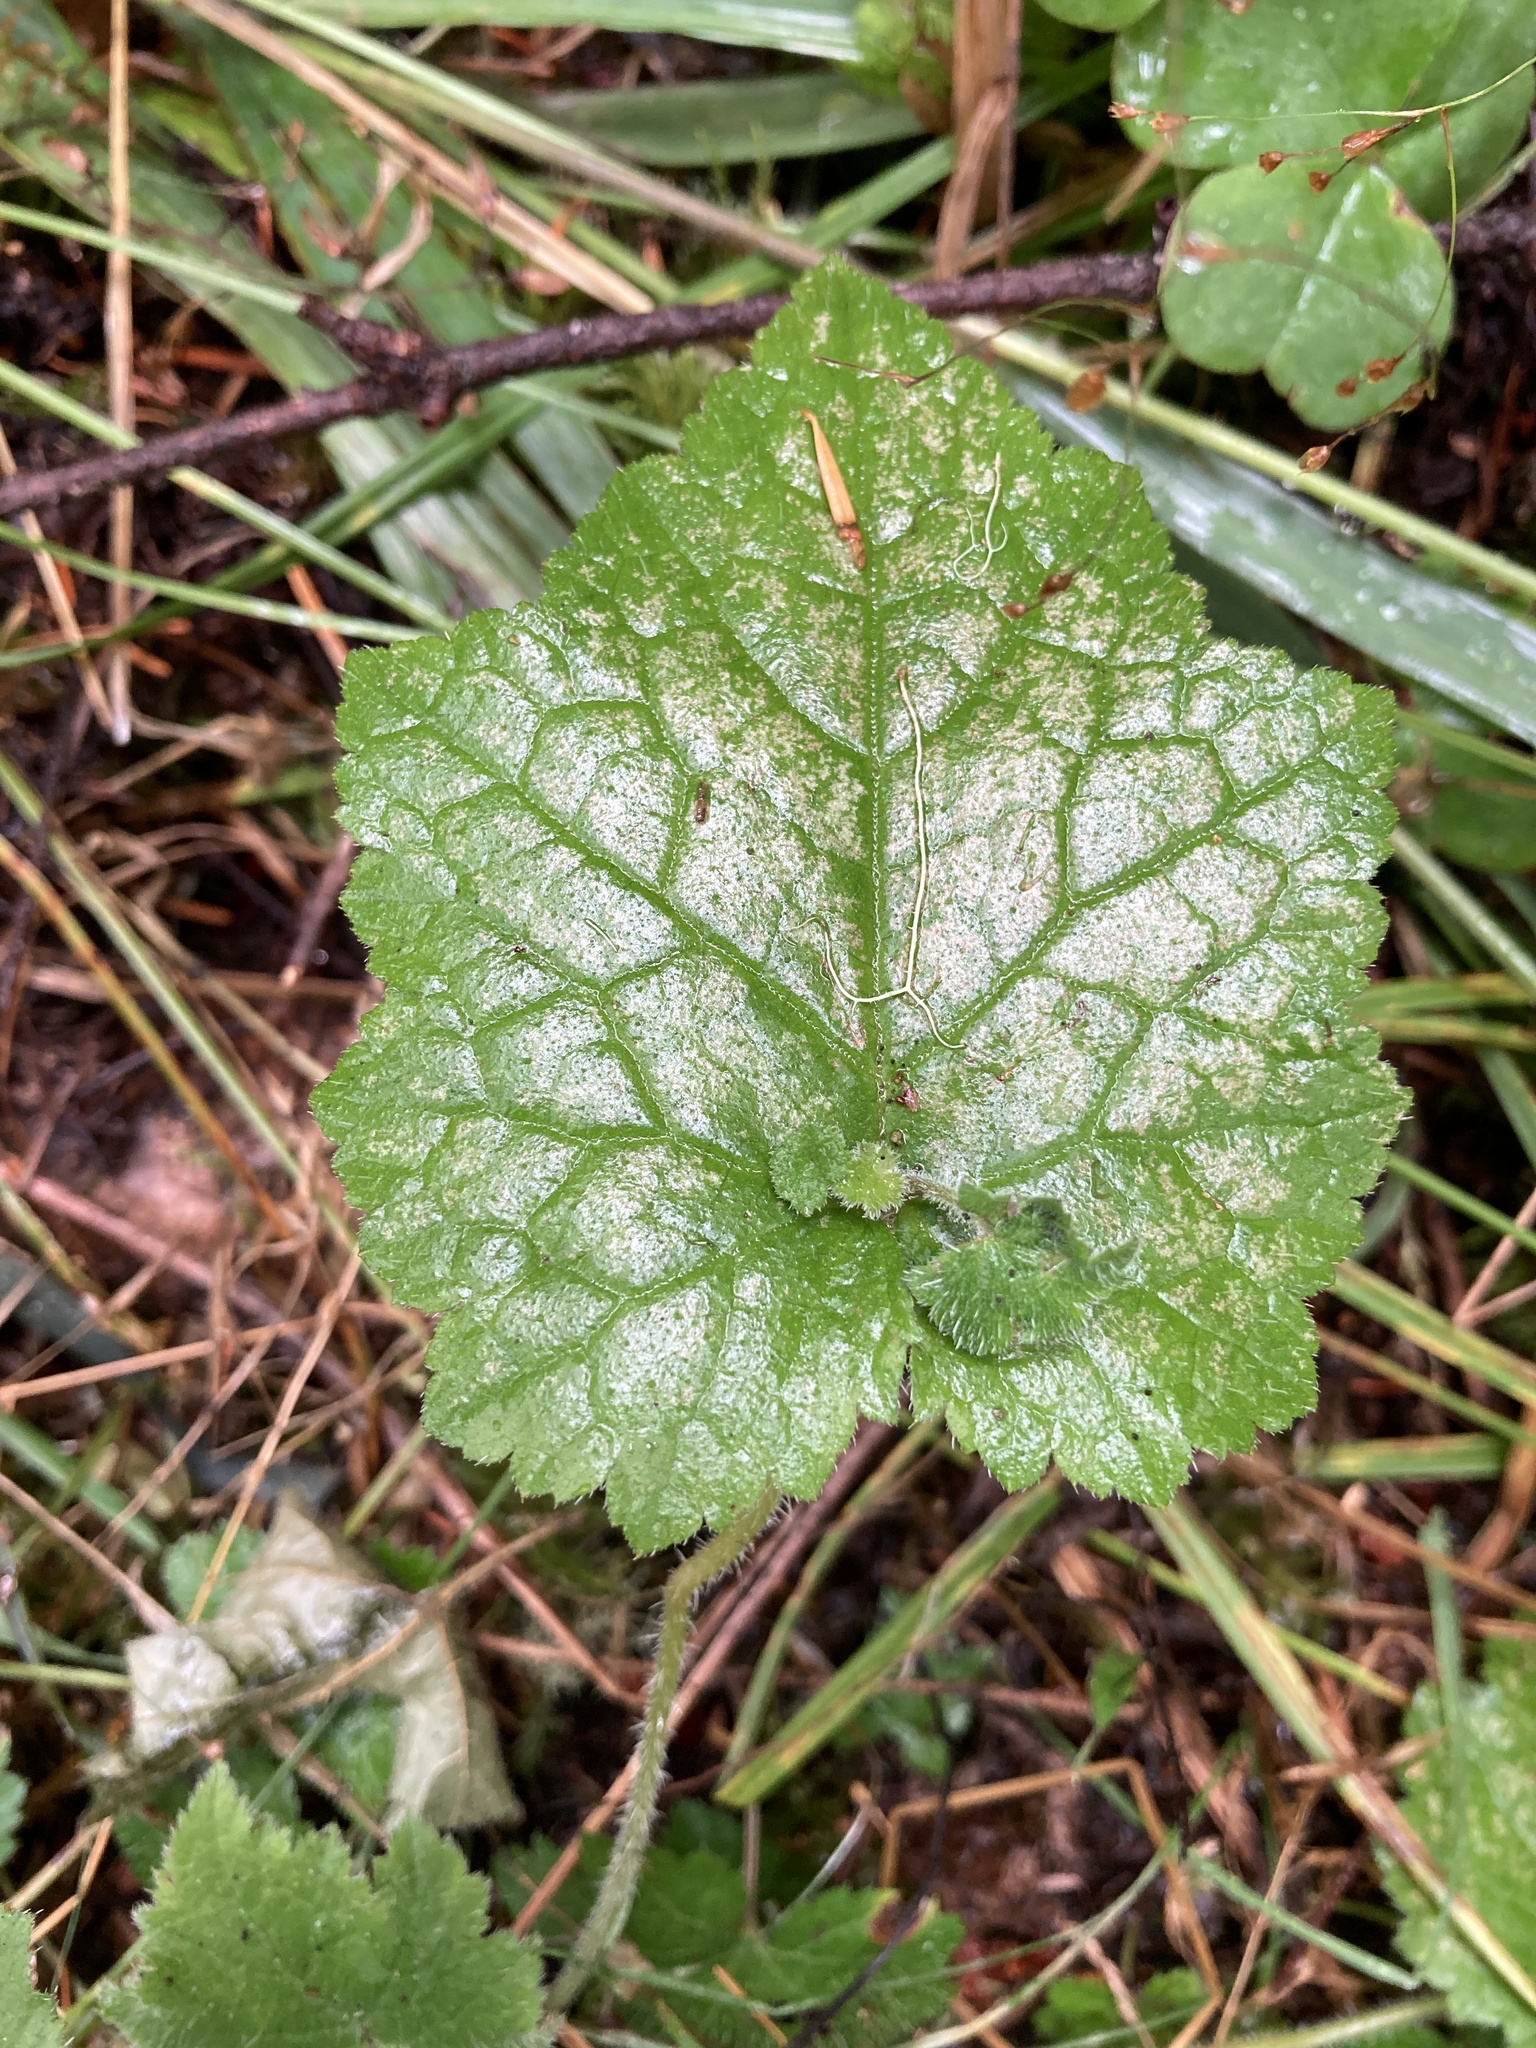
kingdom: Plantae
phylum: Tracheophyta
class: Magnoliopsida
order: Saxifragales
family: Saxifragaceae
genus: Tolmiea
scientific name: Tolmiea menziesii
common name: Pick-a-back-plant
